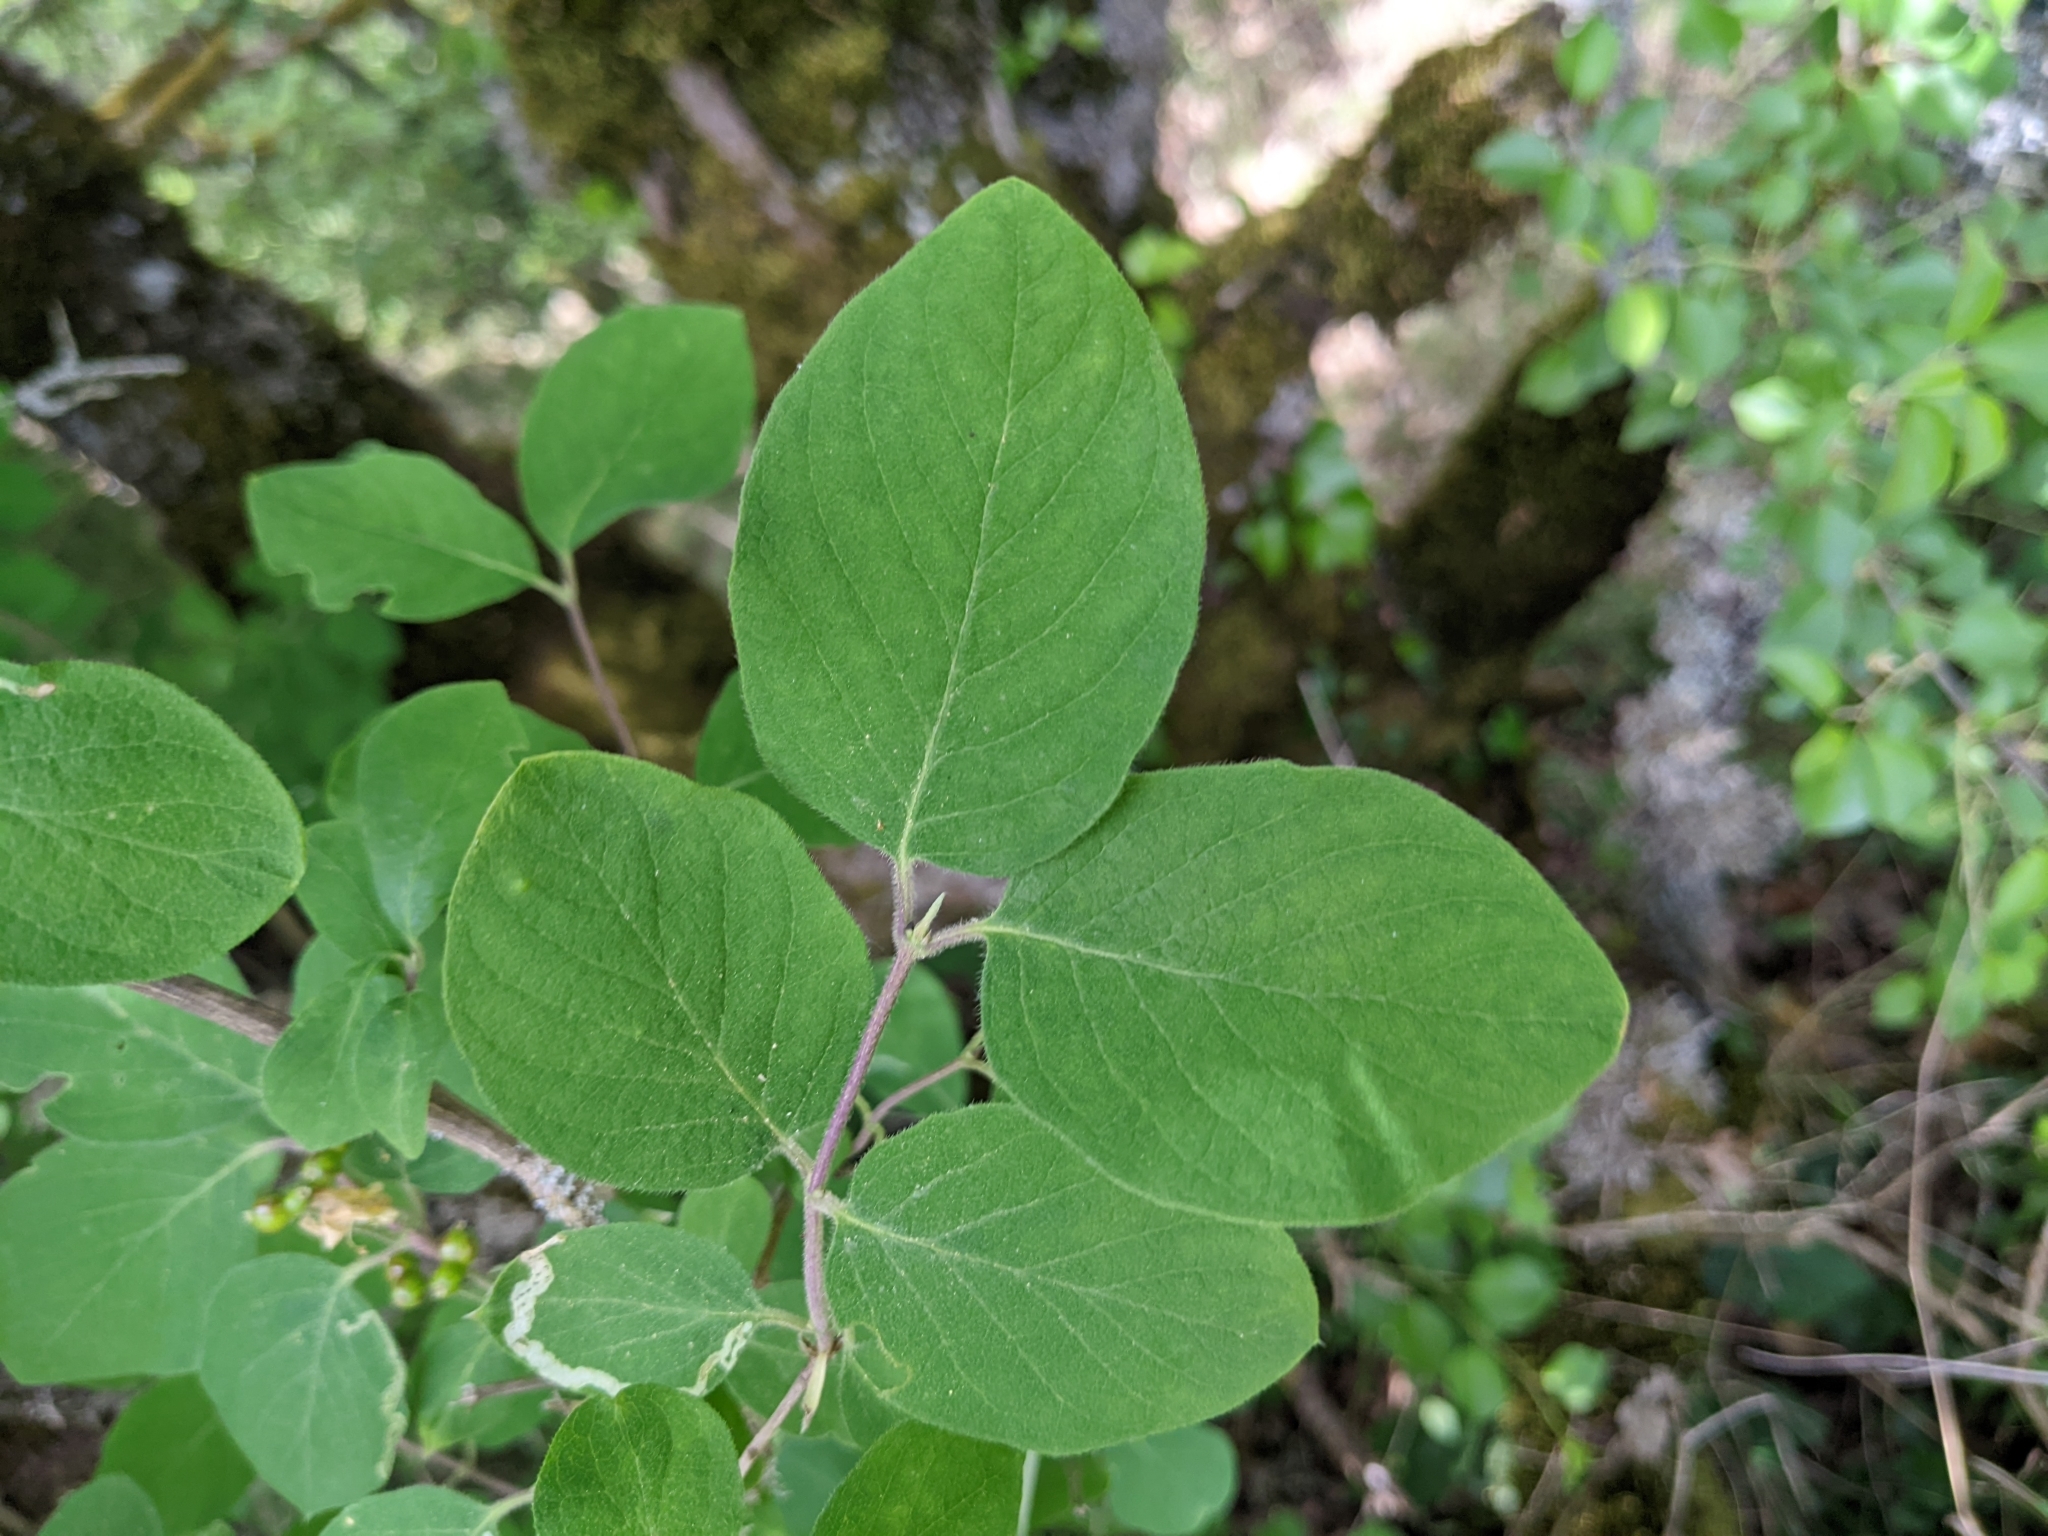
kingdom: Plantae
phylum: Tracheophyta
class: Magnoliopsida
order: Dipsacales
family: Caprifoliaceae
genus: Lonicera
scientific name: Lonicera xylosteum
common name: Fly honeysuckle
